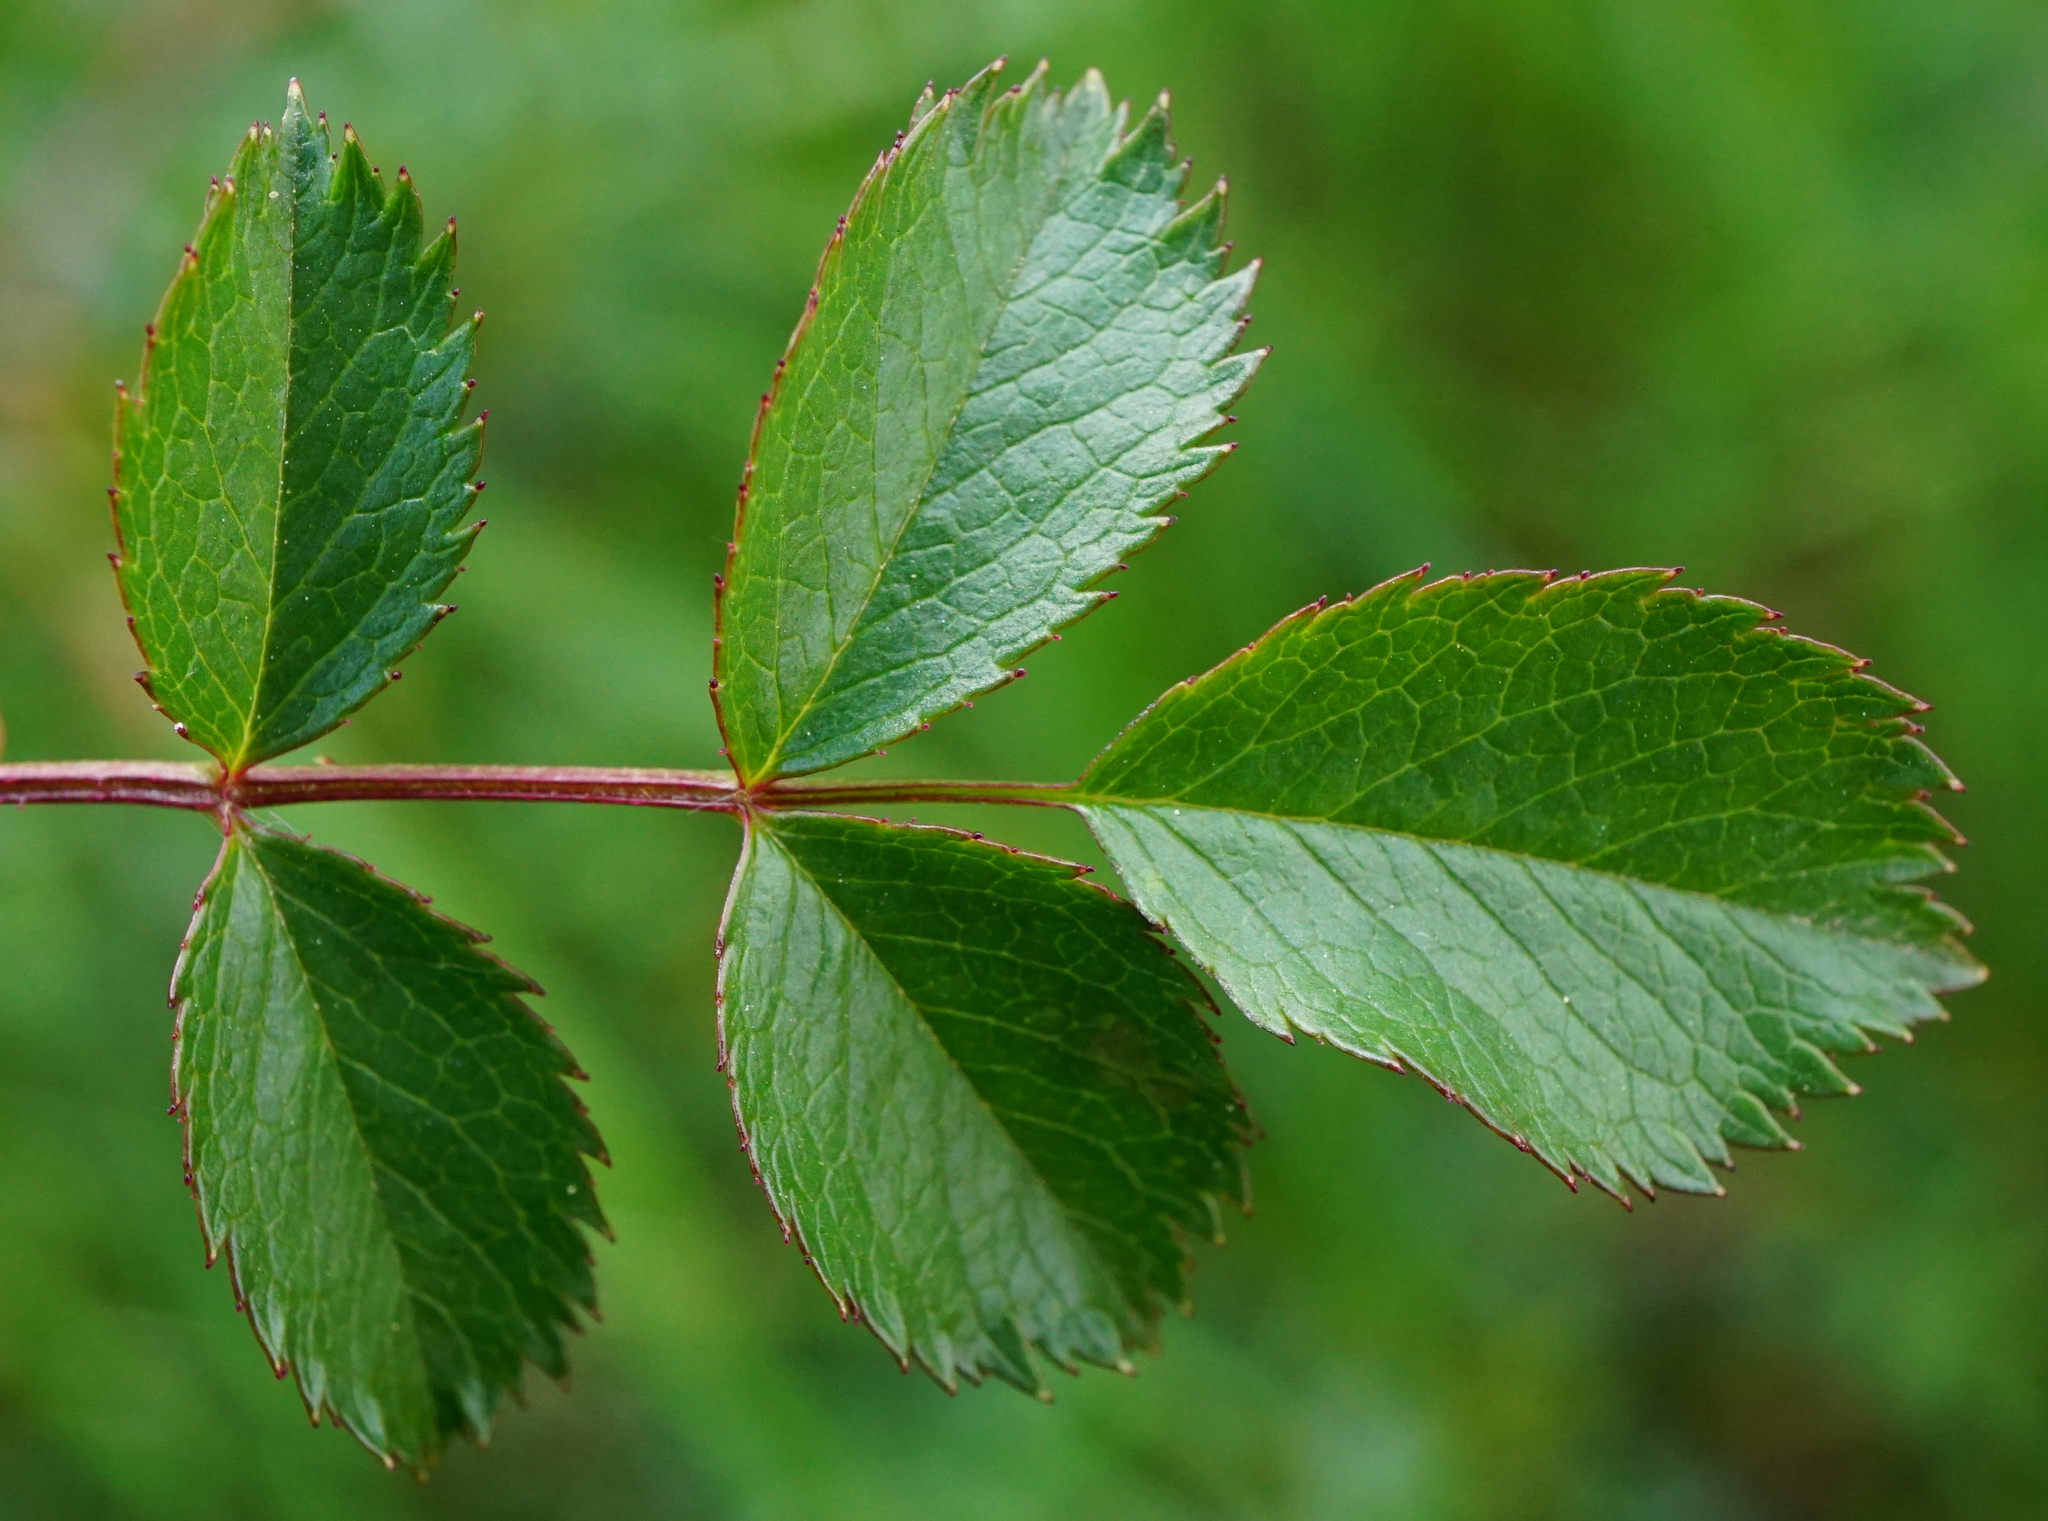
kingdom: Plantae
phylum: Tracheophyta
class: Magnoliopsida
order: Rosales
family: Rosaceae
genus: Rosa
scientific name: Rosa
